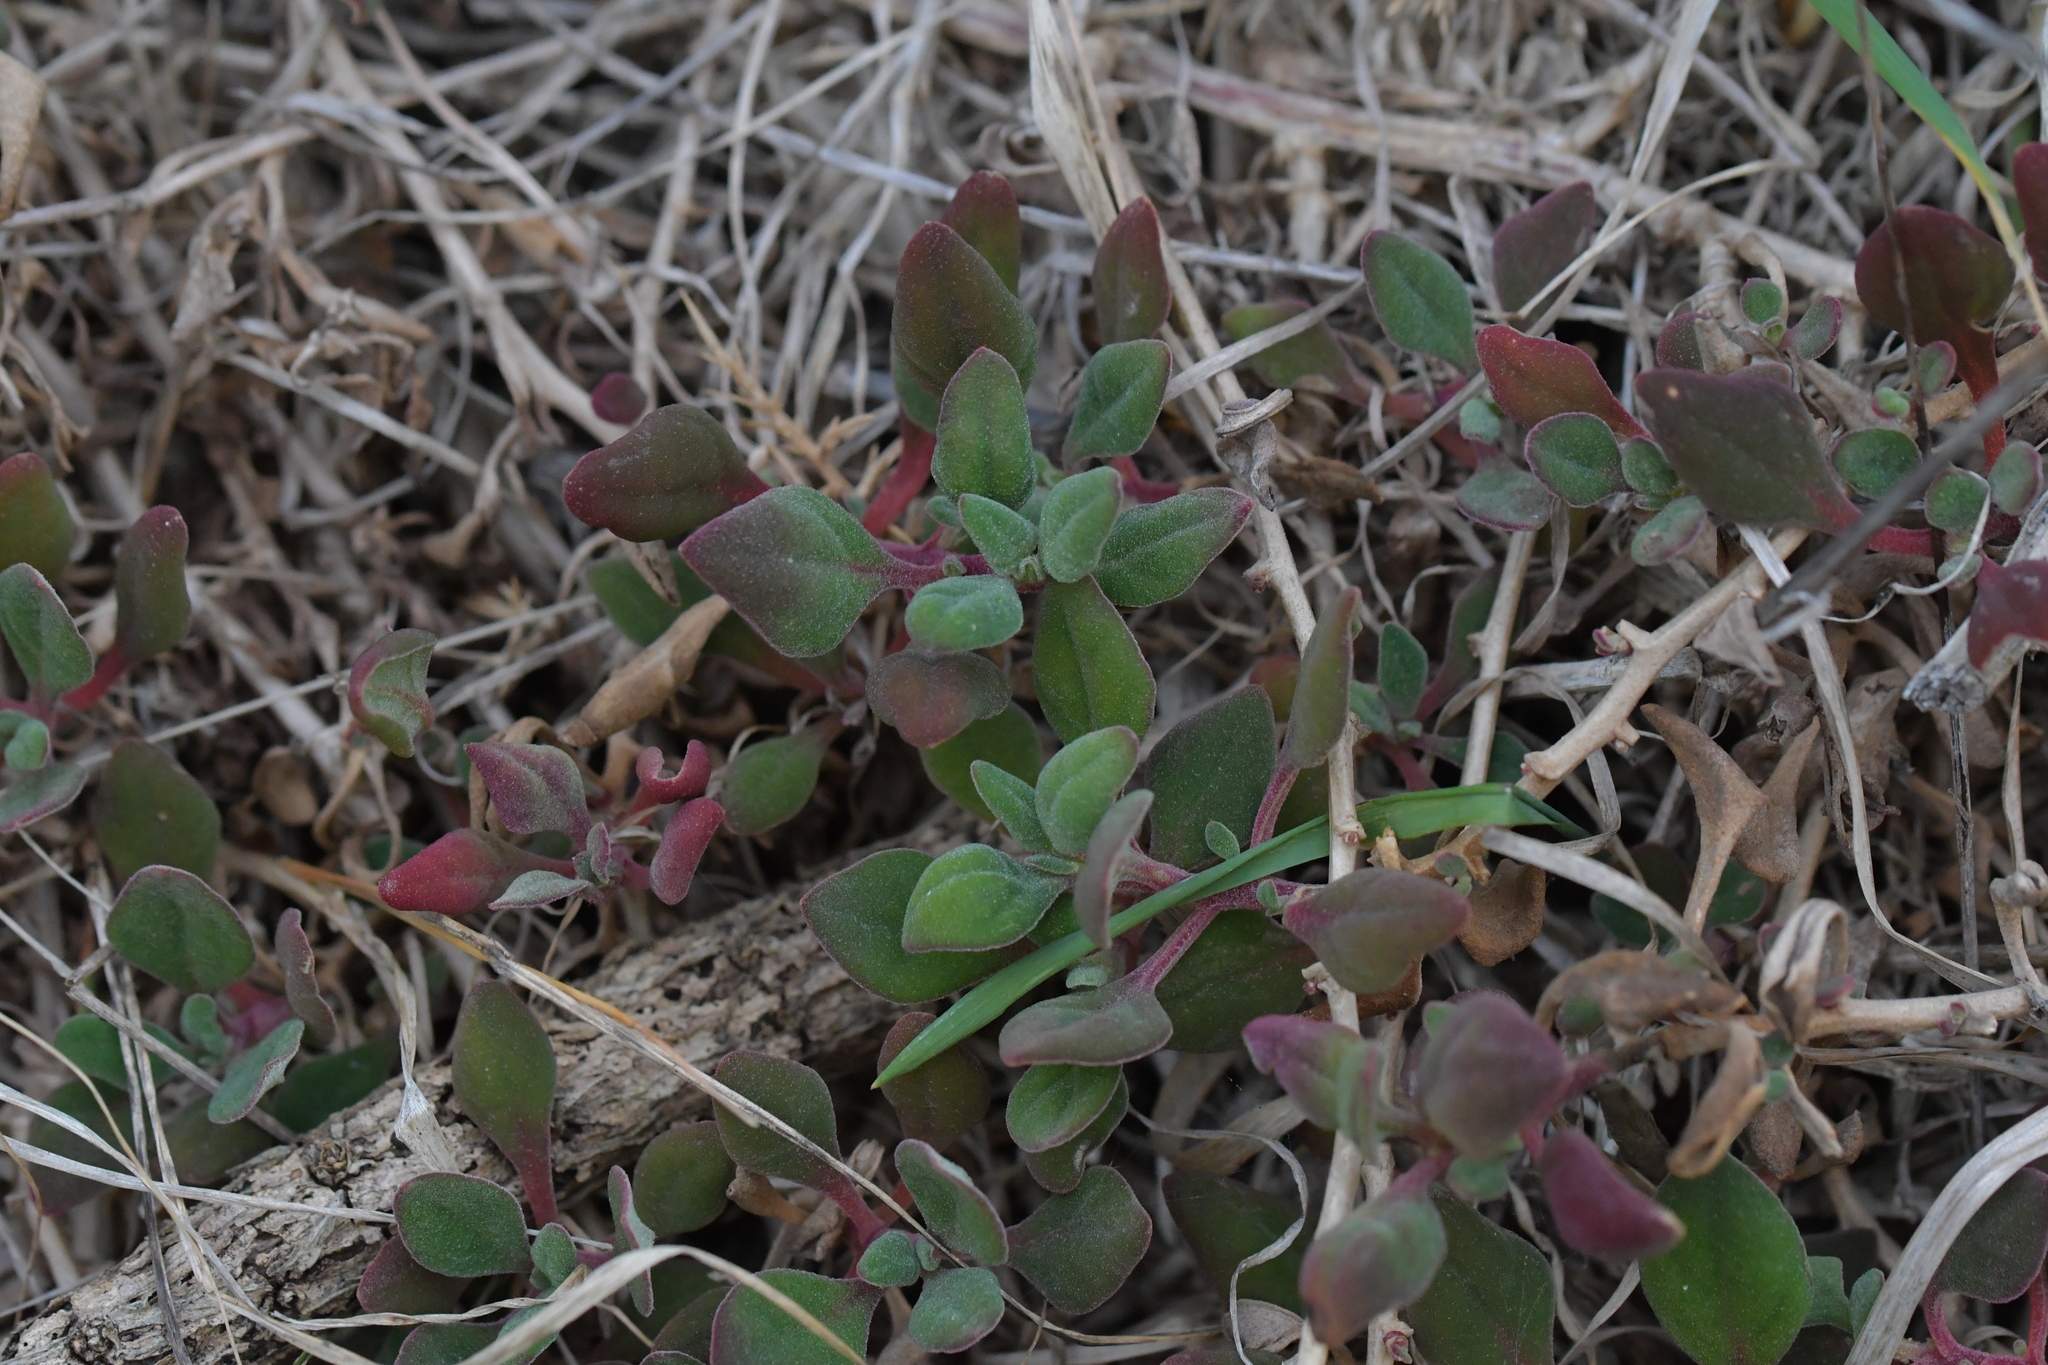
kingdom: Plantae
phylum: Tracheophyta
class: Magnoliopsida
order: Caryophyllales
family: Aizoaceae
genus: Tetragonia
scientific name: Tetragonia implexicoma
